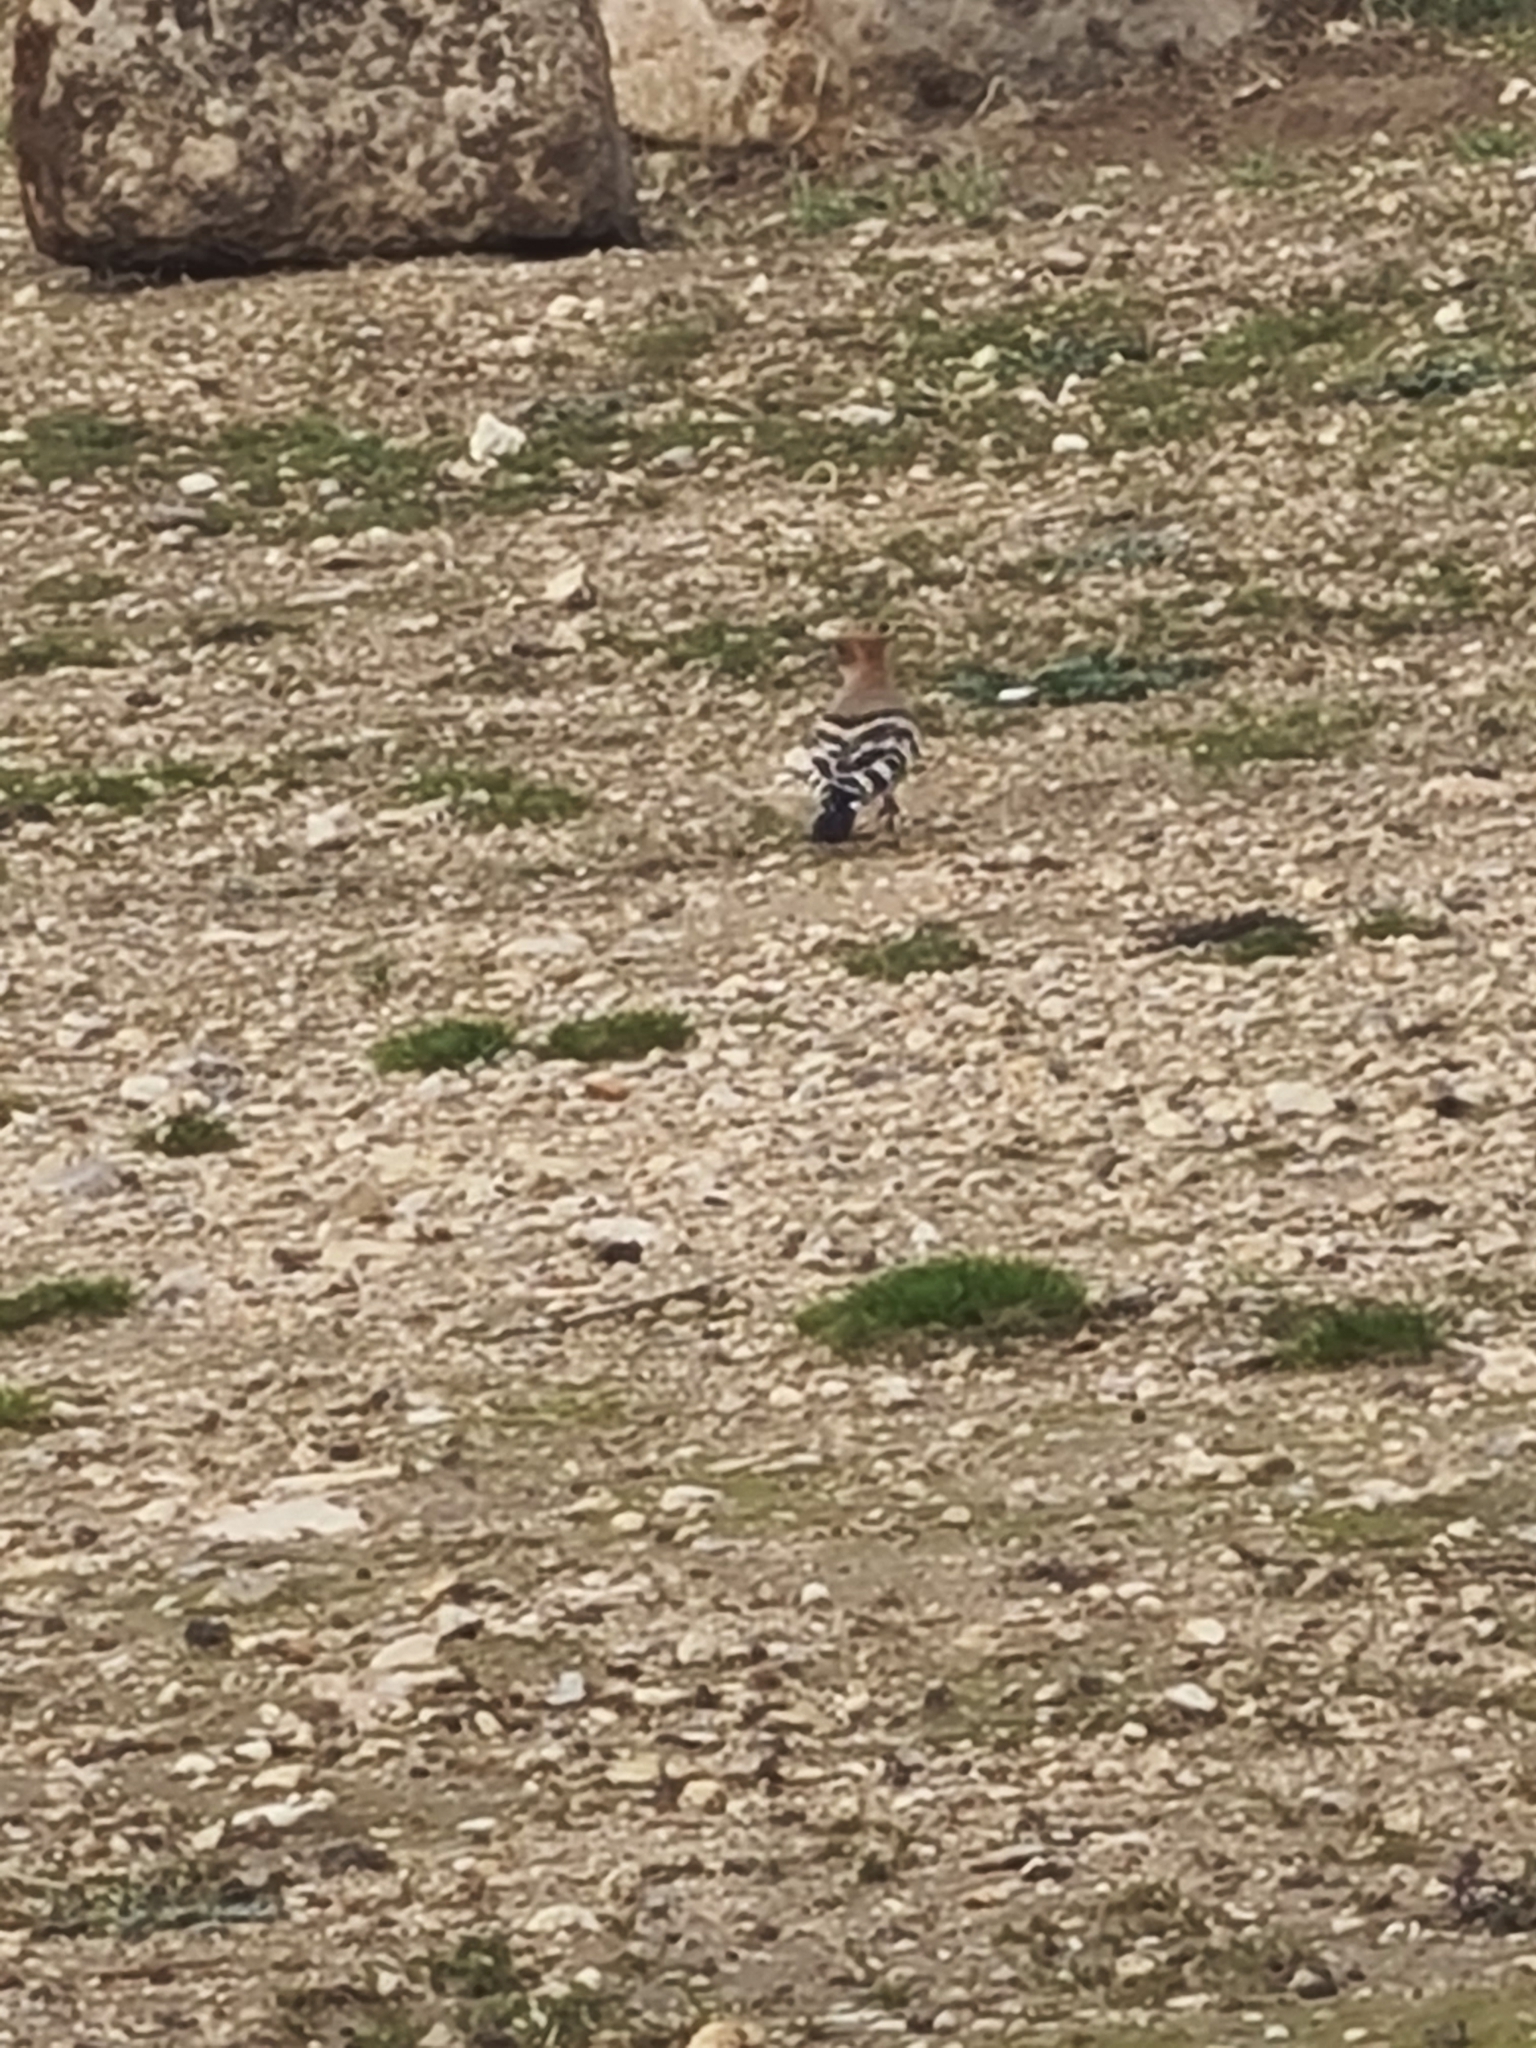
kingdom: Animalia
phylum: Chordata
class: Aves
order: Bucerotiformes
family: Upupidae
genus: Upupa
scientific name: Upupa epops
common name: Eurasian hoopoe
